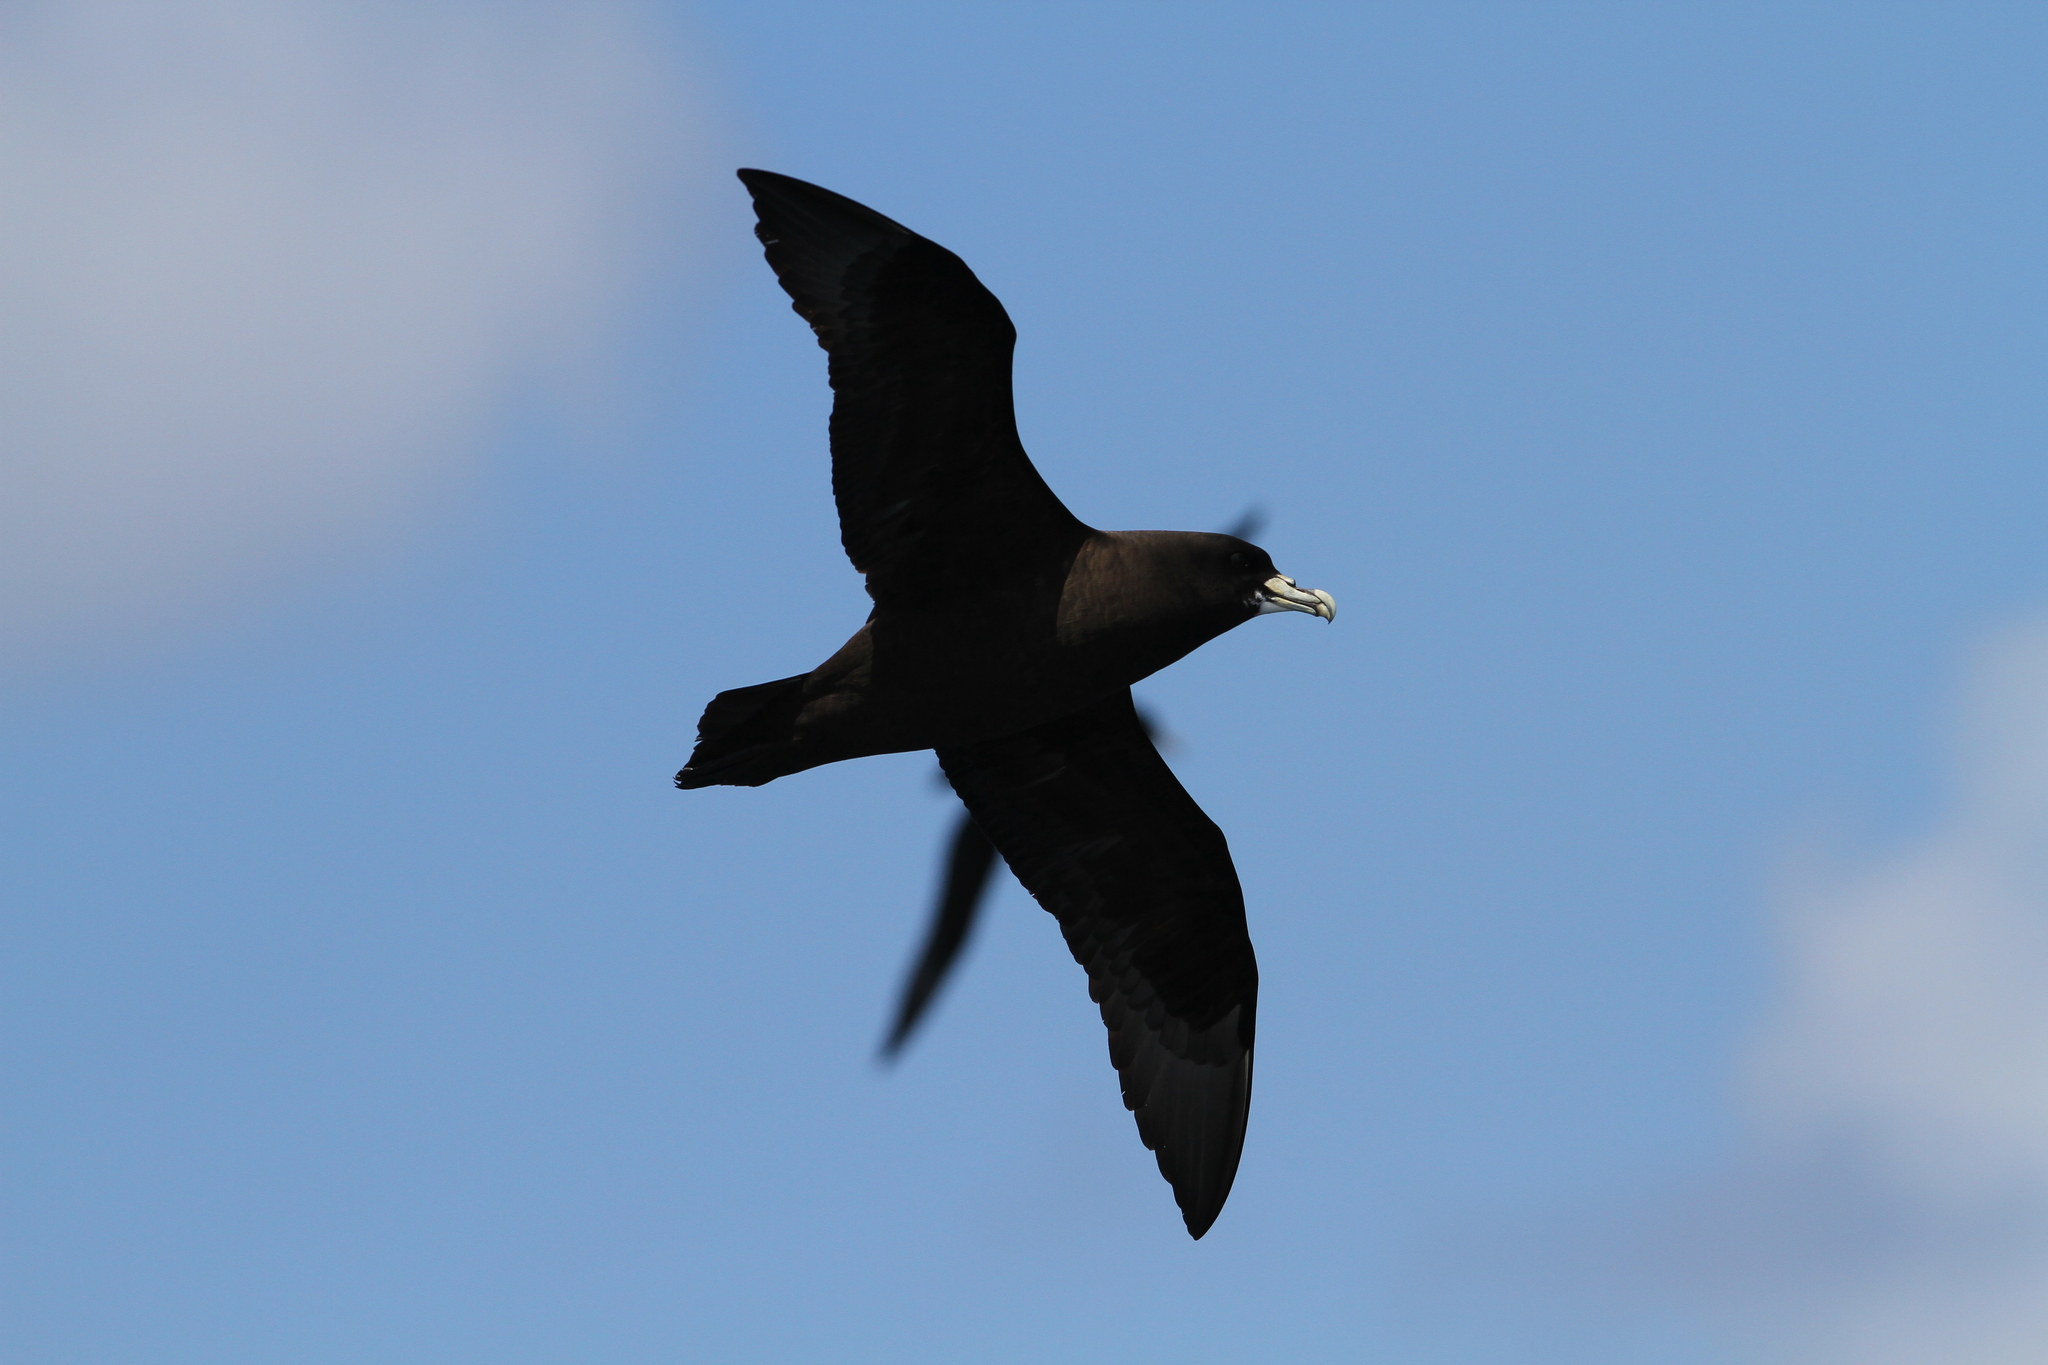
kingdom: Animalia
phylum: Chordata
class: Aves
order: Procellariiformes
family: Procellariidae
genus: Procellaria
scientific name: Procellaria aequinoctialis
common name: White-chinned petrel
